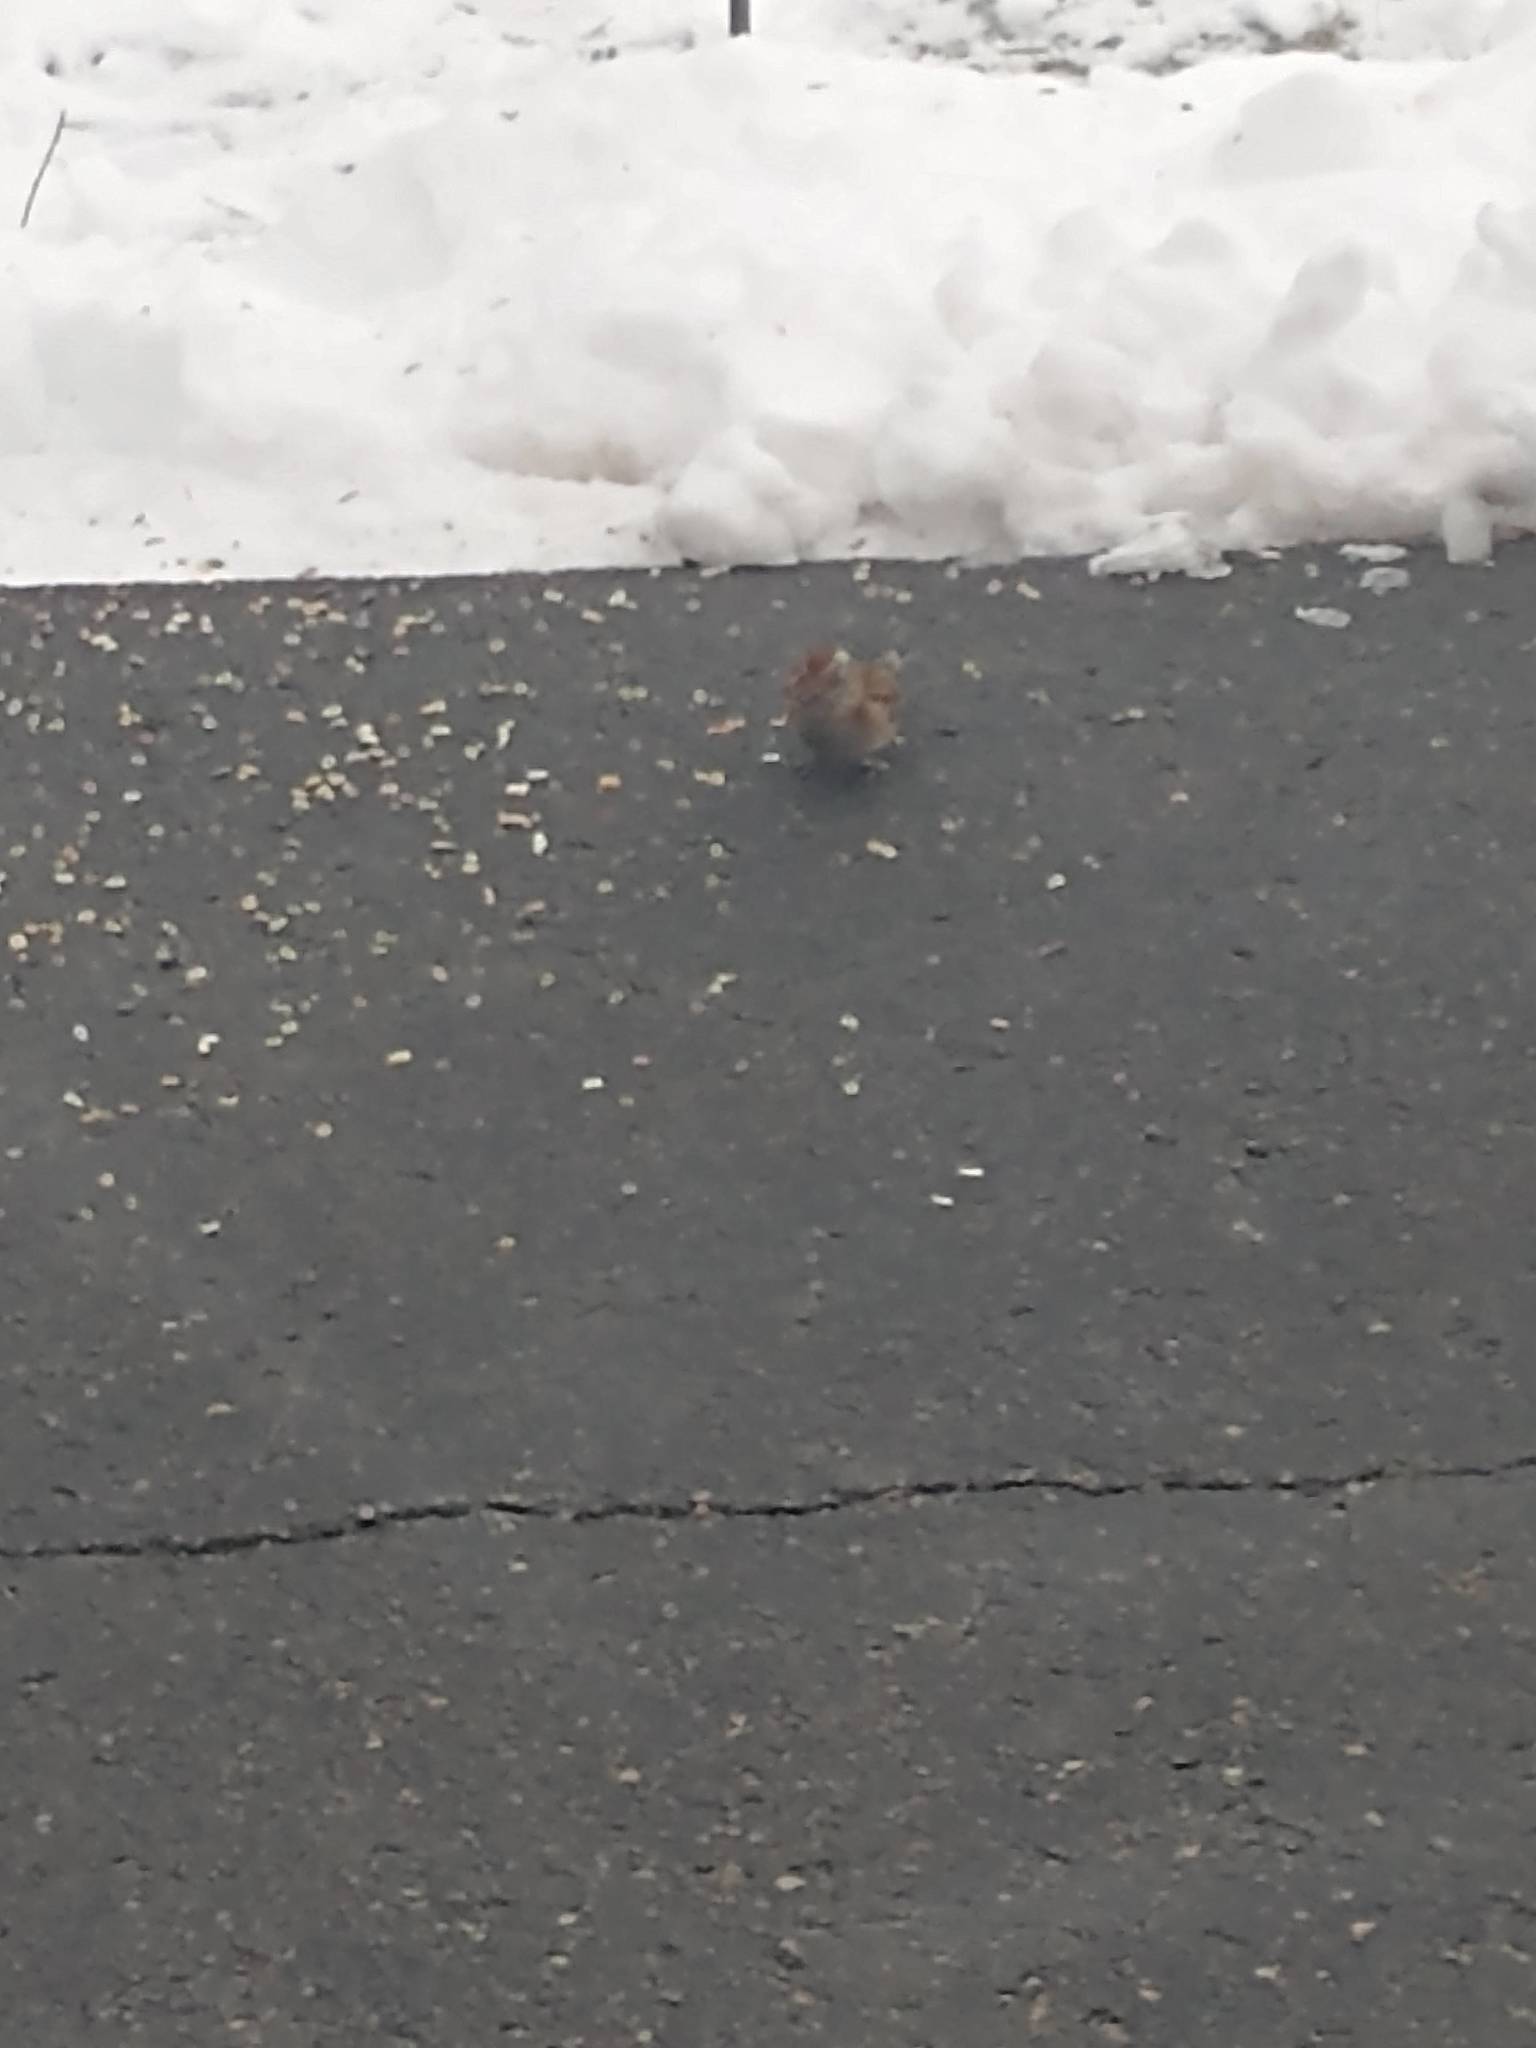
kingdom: Animalia
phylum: Chordata
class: Aves
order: Passeriformes
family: Passerellidae
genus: Spizelloides
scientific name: Spizelloides arborea
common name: American tree sparrow
